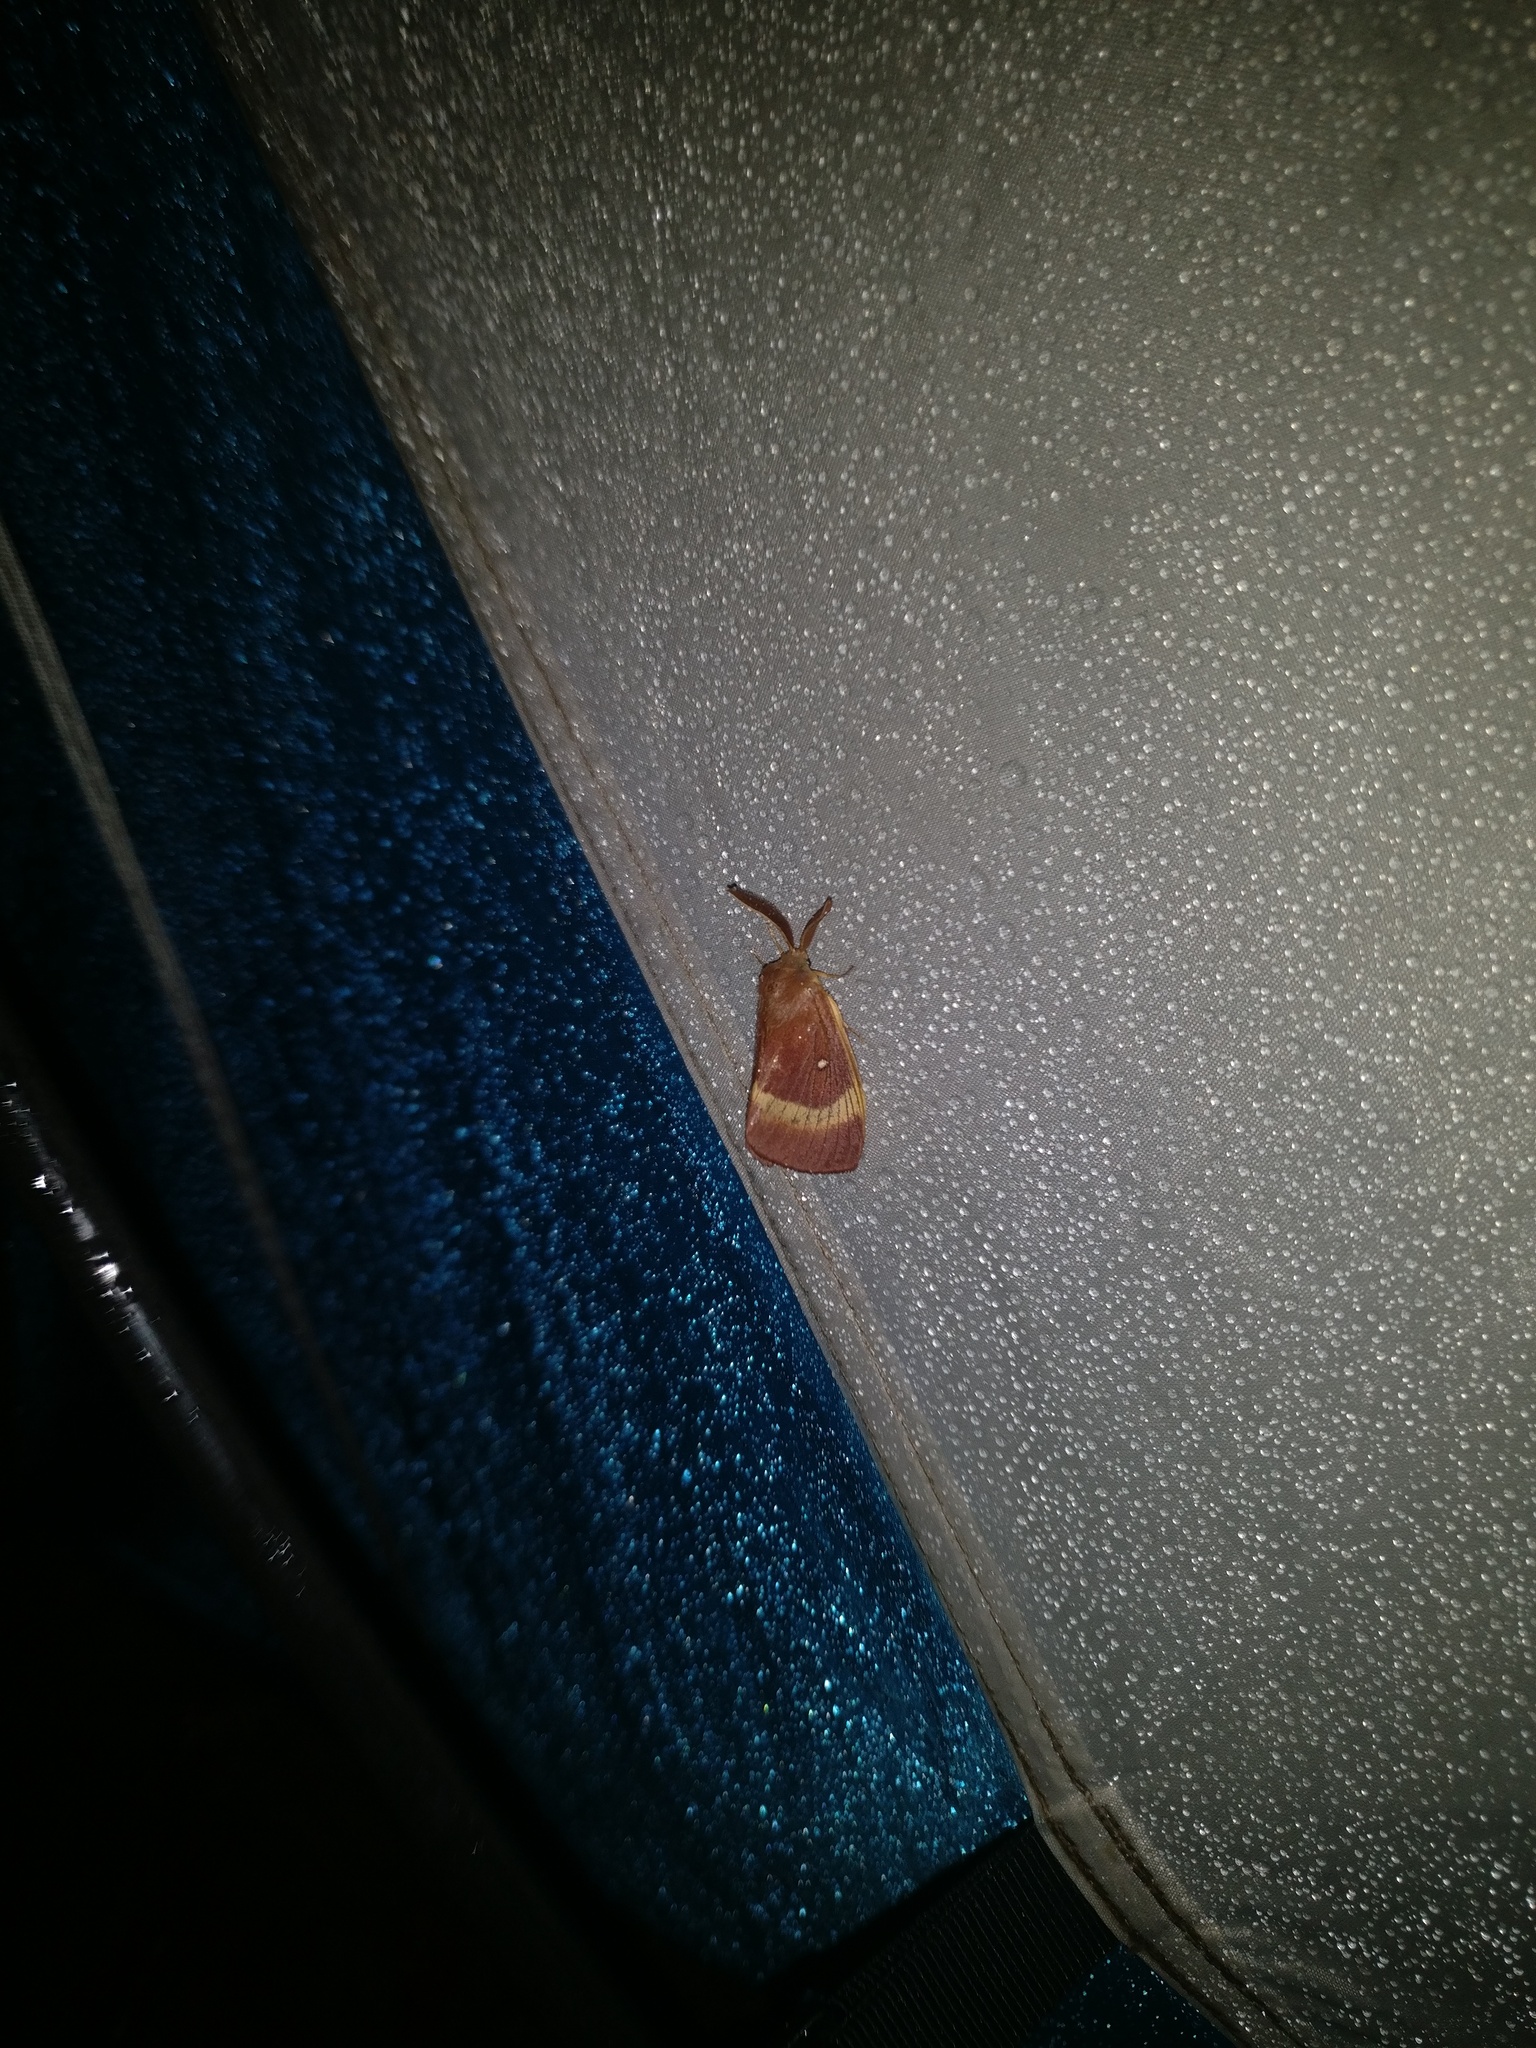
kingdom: Animalia
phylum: Arthropoda
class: Insecta
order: Lepidoptera
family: Lasiocampidae
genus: Lasiocampa
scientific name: Lasiocampa quercus
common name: Oak eggar
